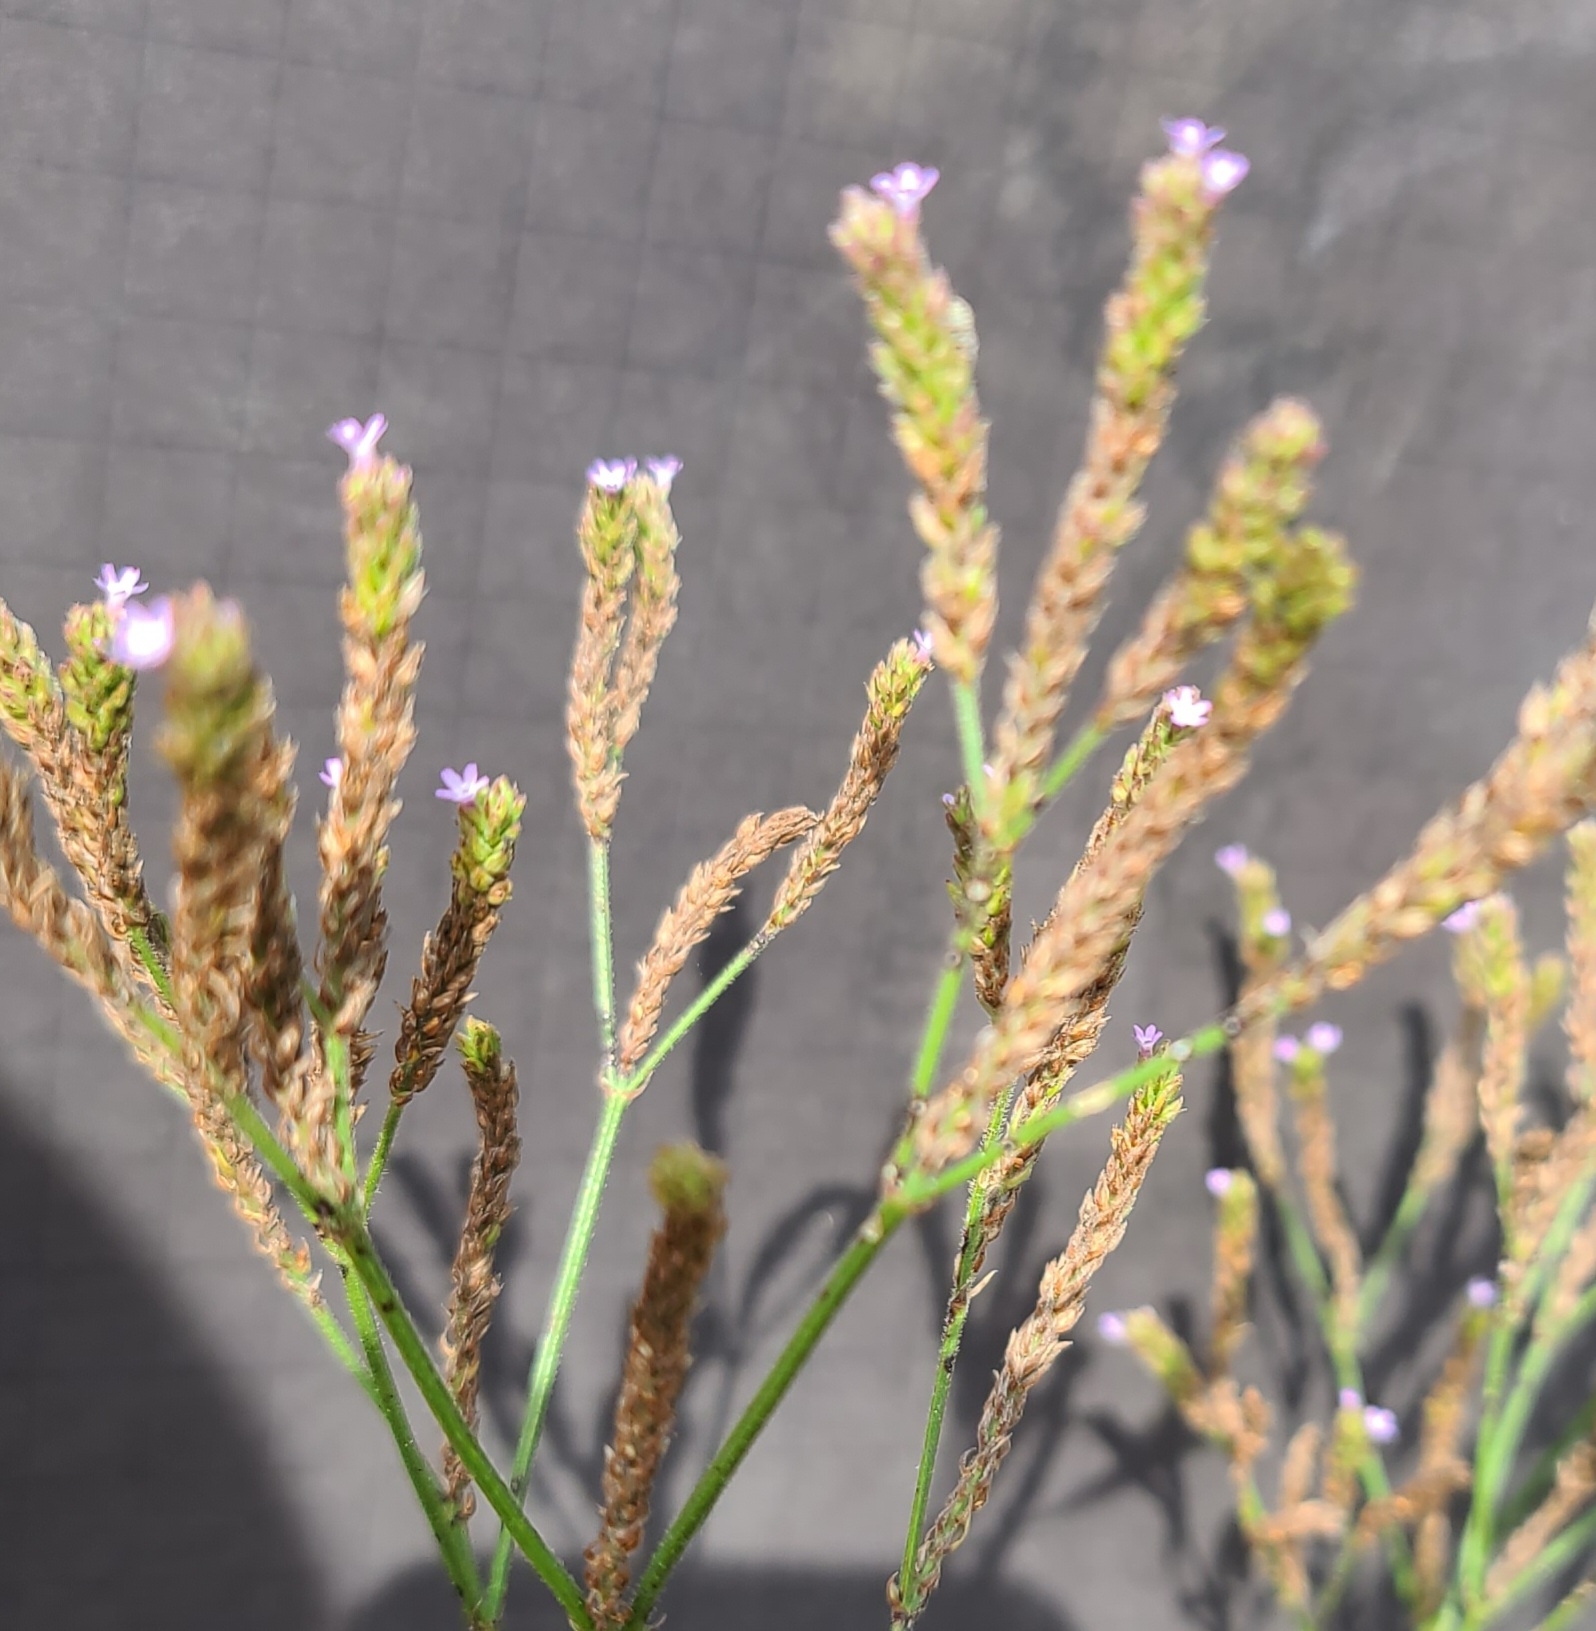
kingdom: Plantae
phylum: Tracheophyta
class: Magnoliopsida
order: Lamiales
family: Verbenaceae
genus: Verbena
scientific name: Verbena brasiliensis
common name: Brazilian vervain
